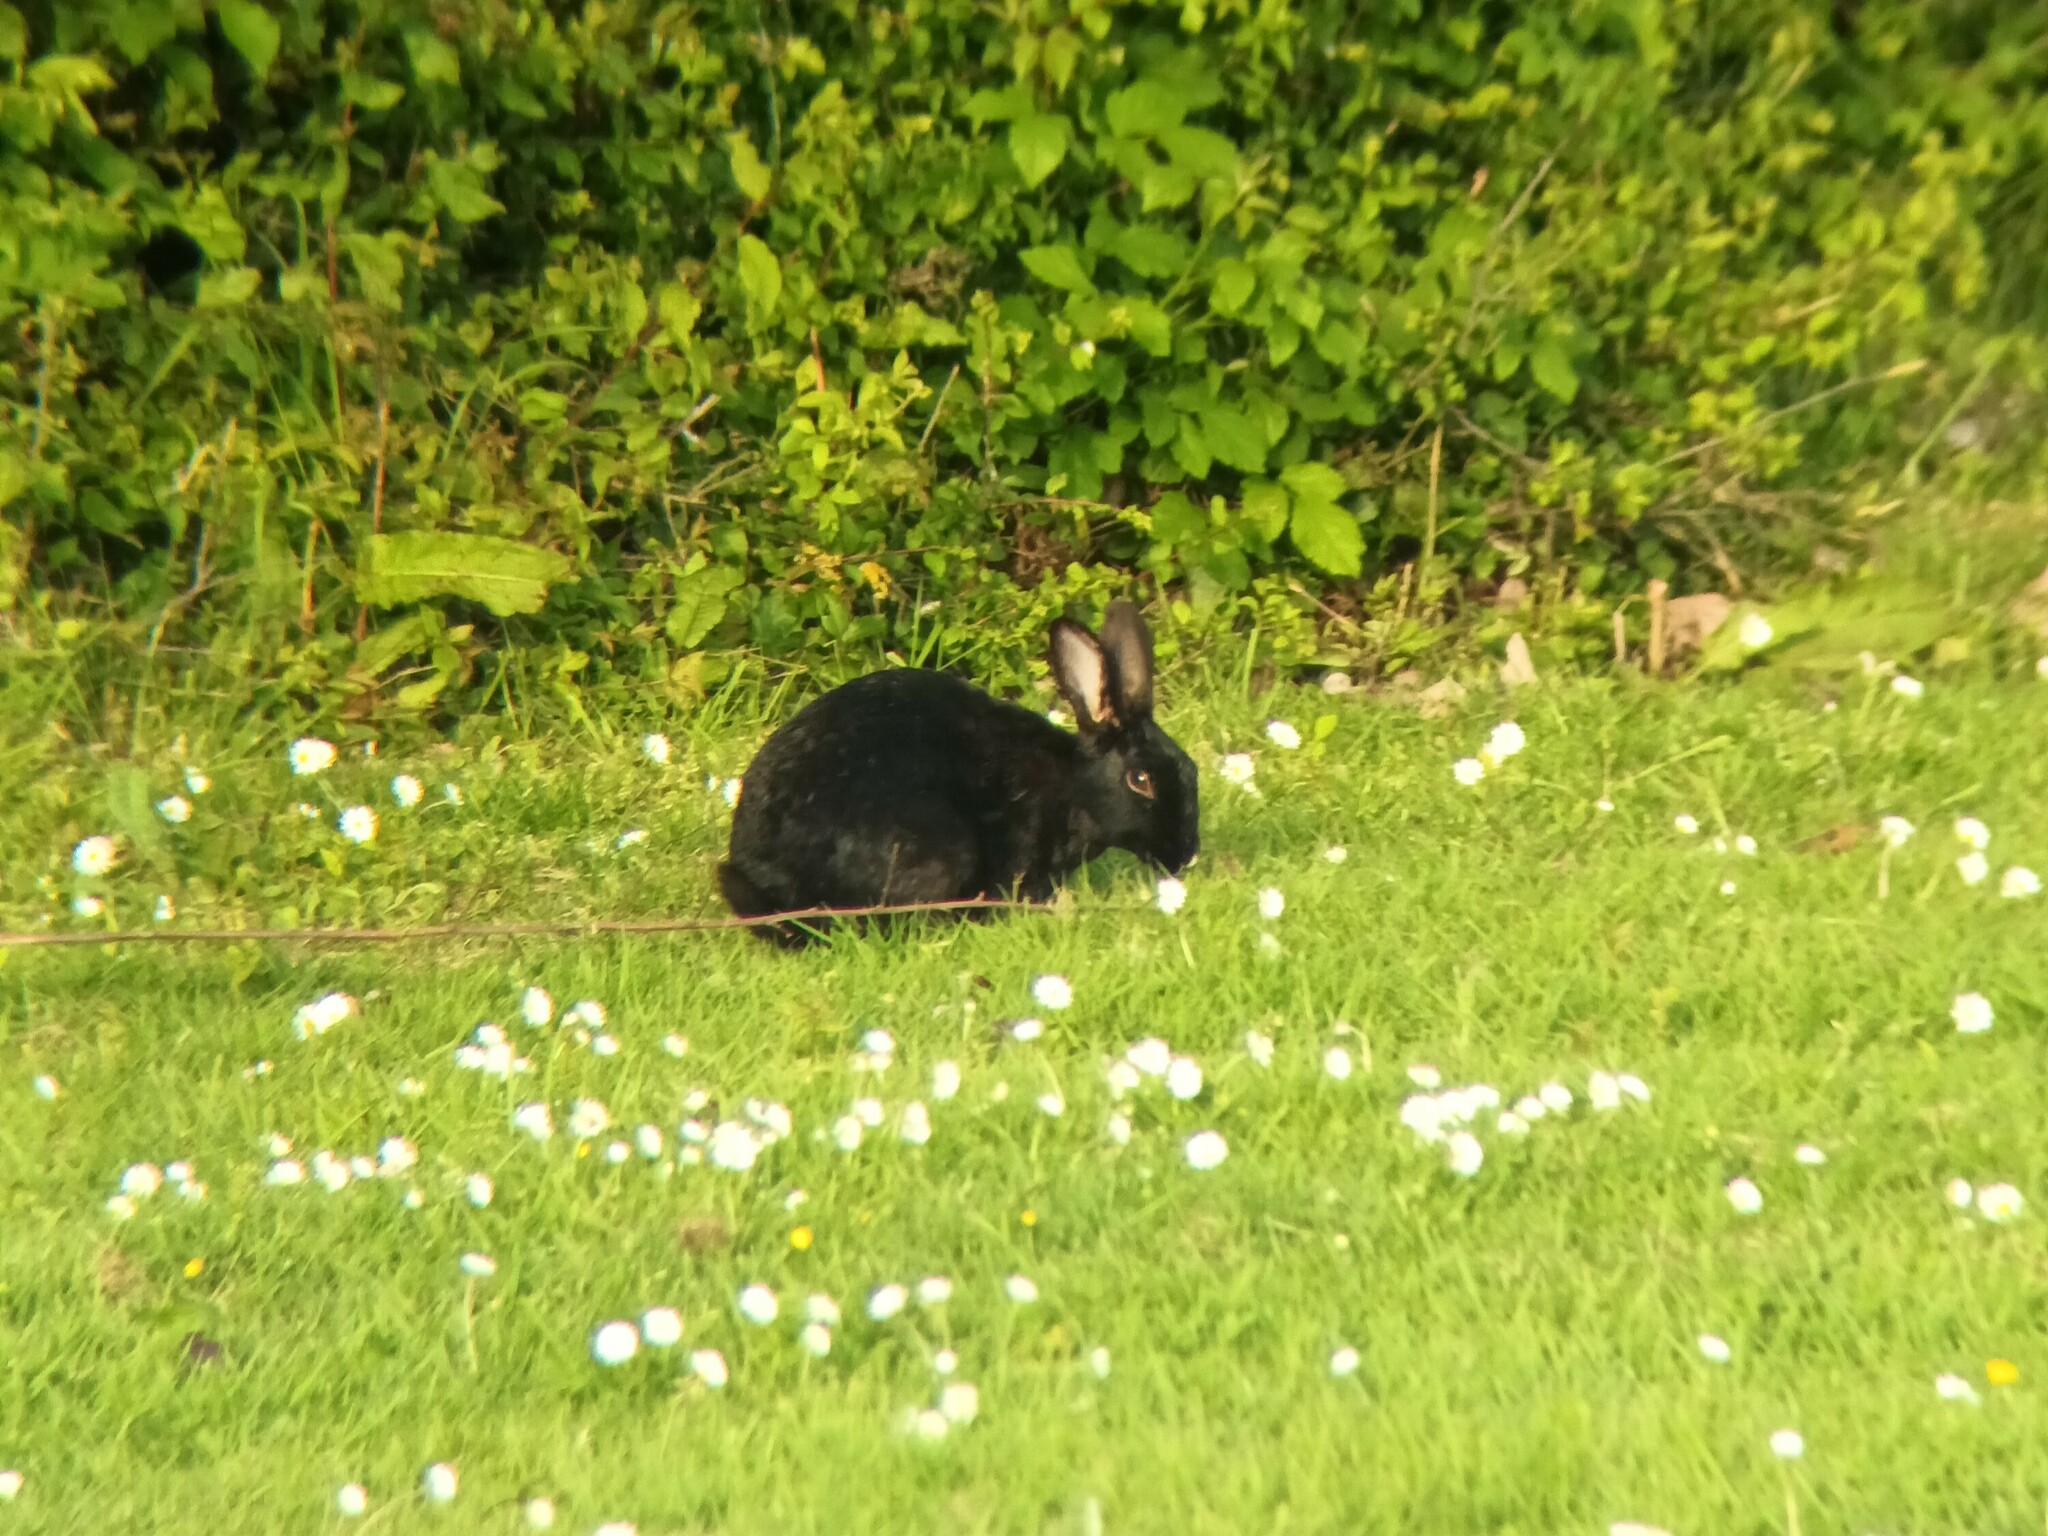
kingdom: Animalia
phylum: Chordata
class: Mammalia
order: Lagomorpha
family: Leporidae
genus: Oryctolagus
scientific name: Oryctolagus cuniculus
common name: European rabbit
